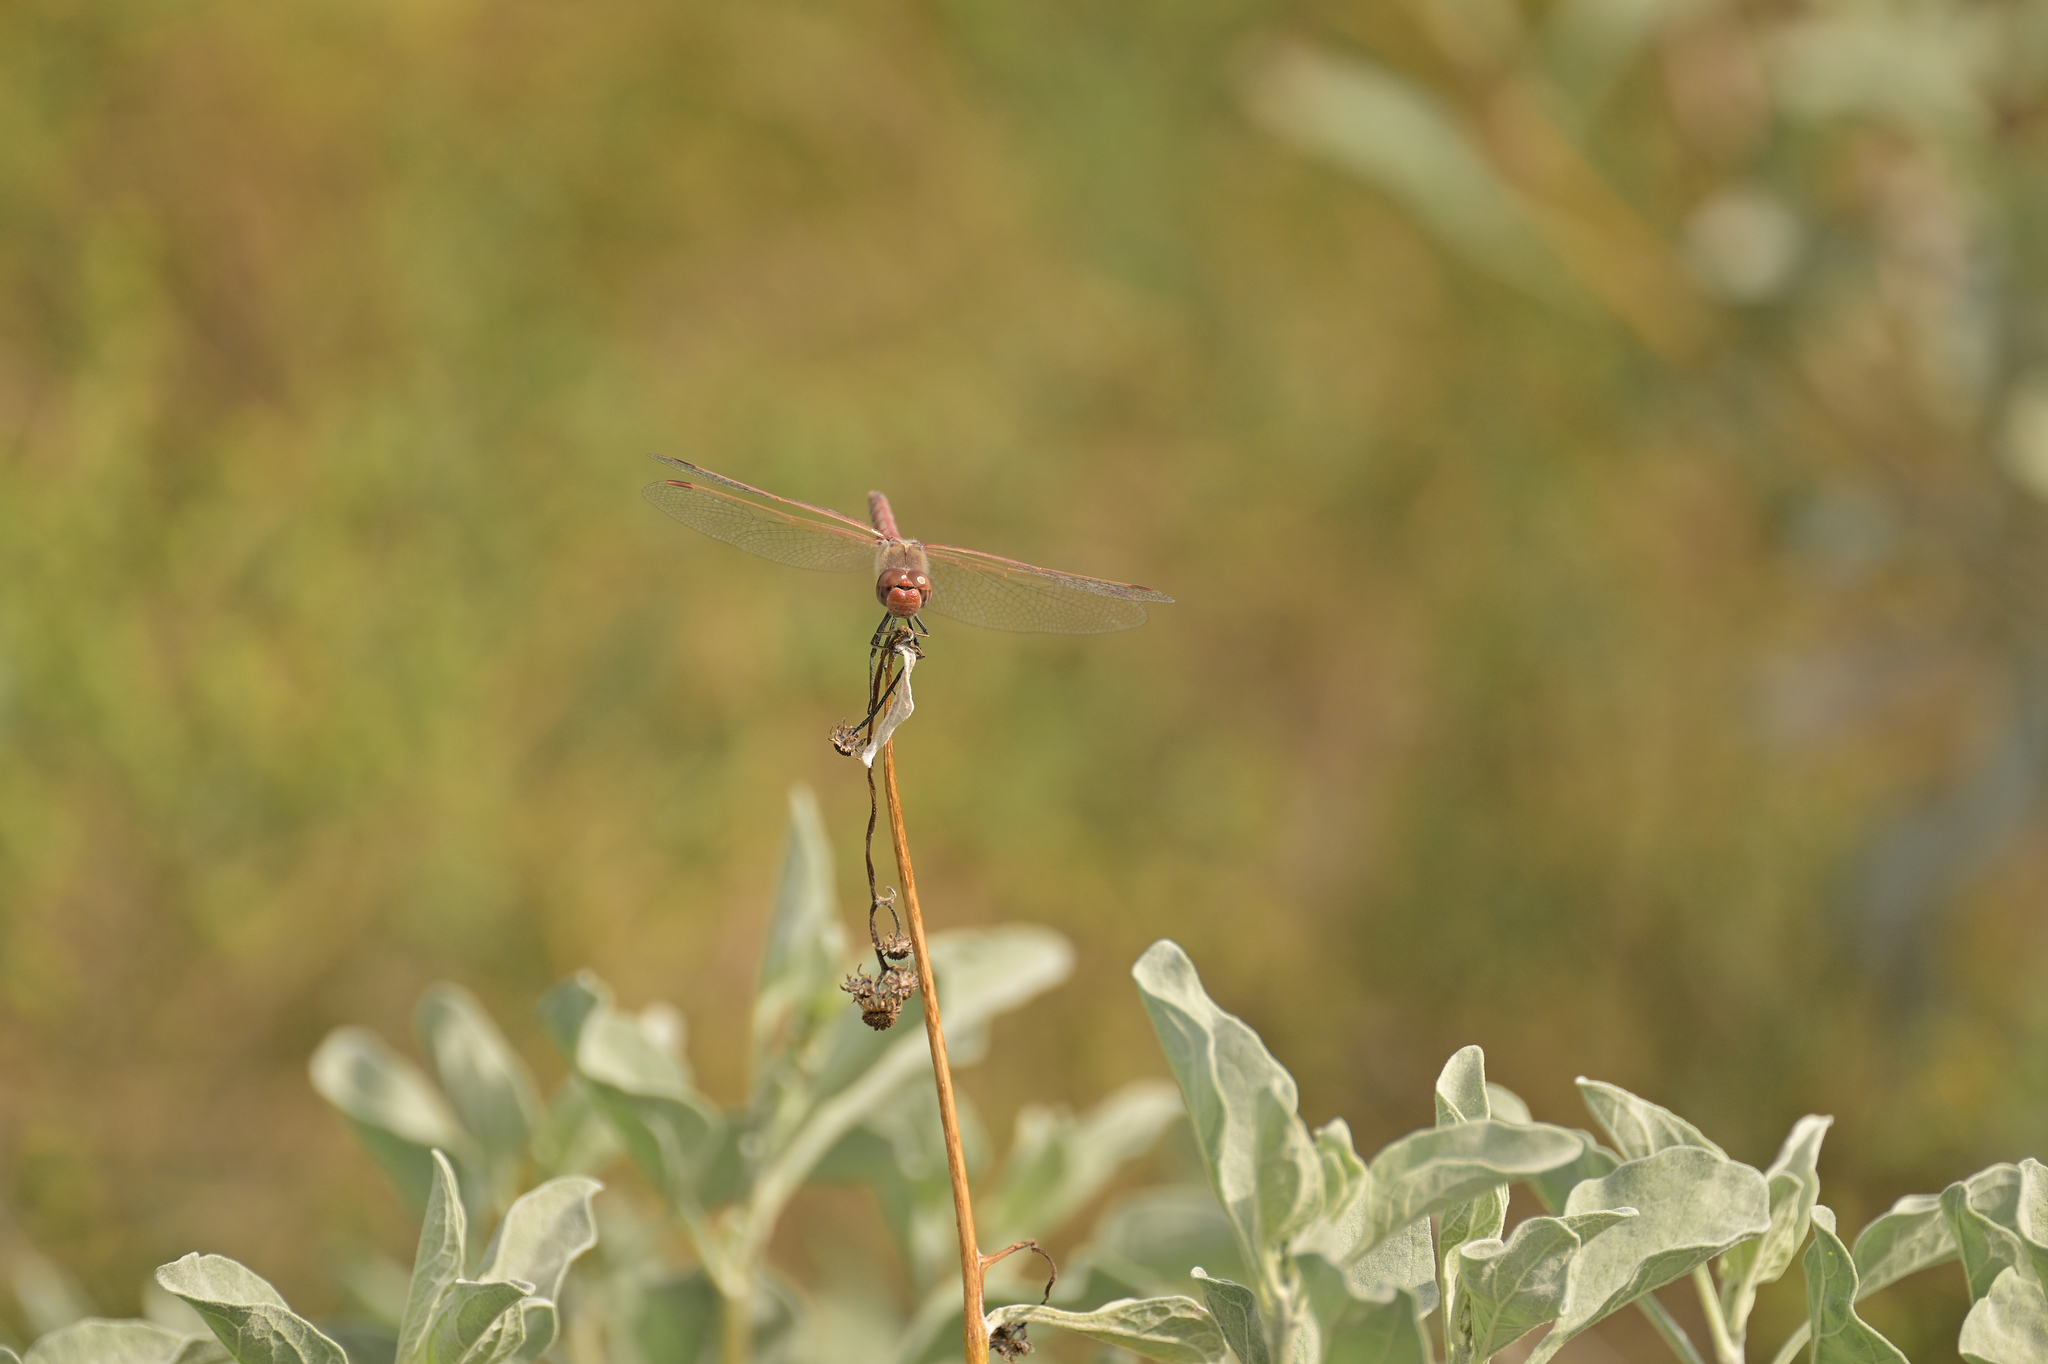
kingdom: Animalia
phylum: Arthropoda
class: Insecta
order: Odonata
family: Libellulidae
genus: Sympetrum
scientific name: Sympetrum corruptum
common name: Variegated meadowhawk
